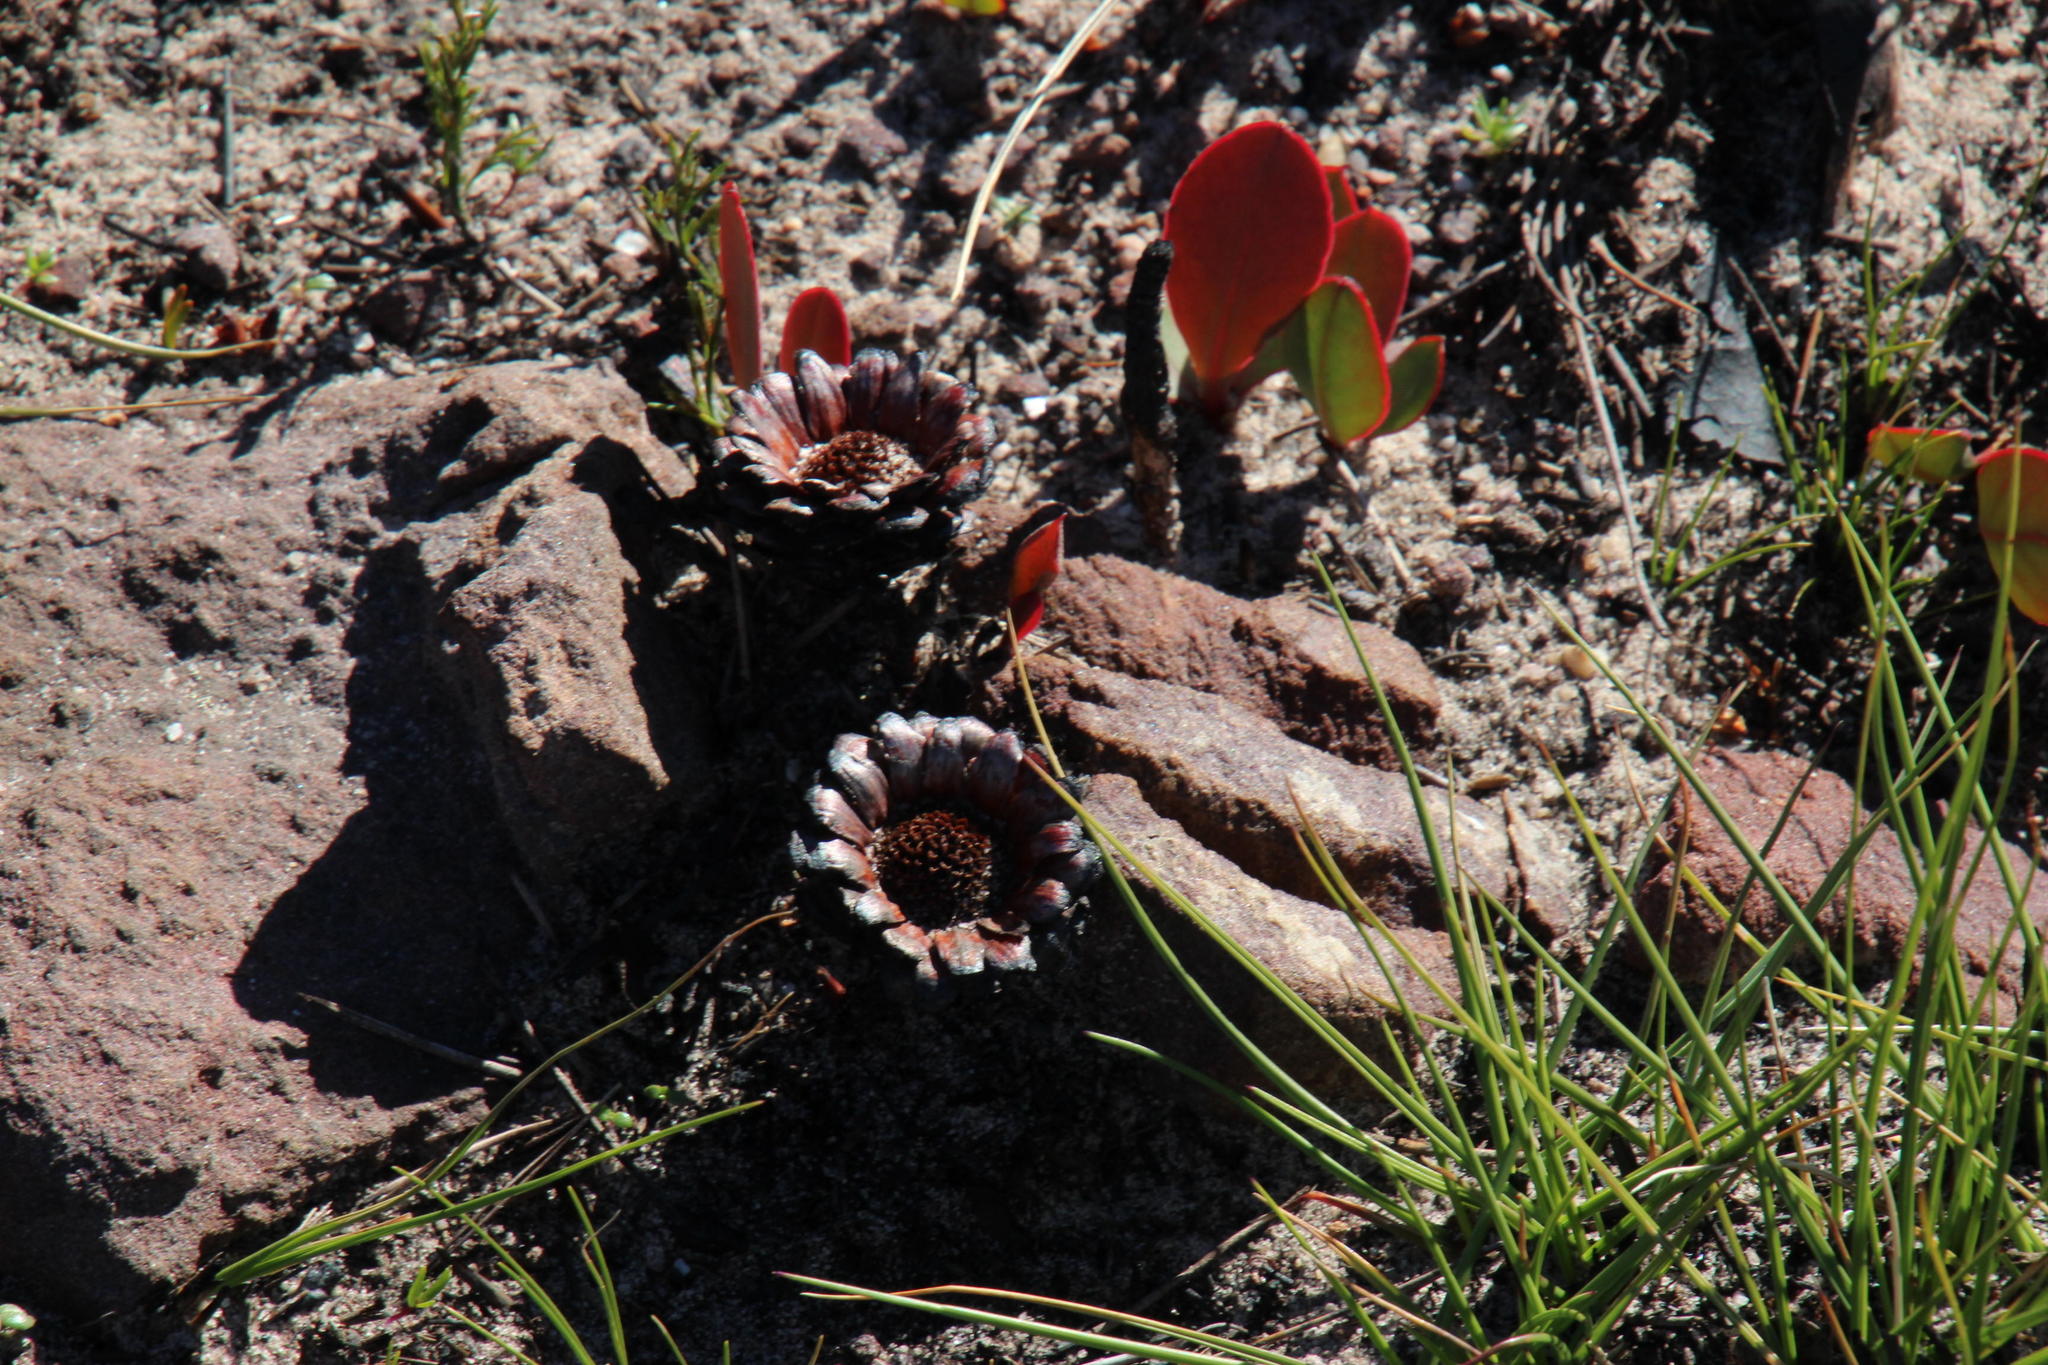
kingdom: Plantae
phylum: Tracheophyta
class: Magnoliopsida
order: Proteales
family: Proteaceae
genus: Protea
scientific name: Protea acaulos
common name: Common ground sugarbush
